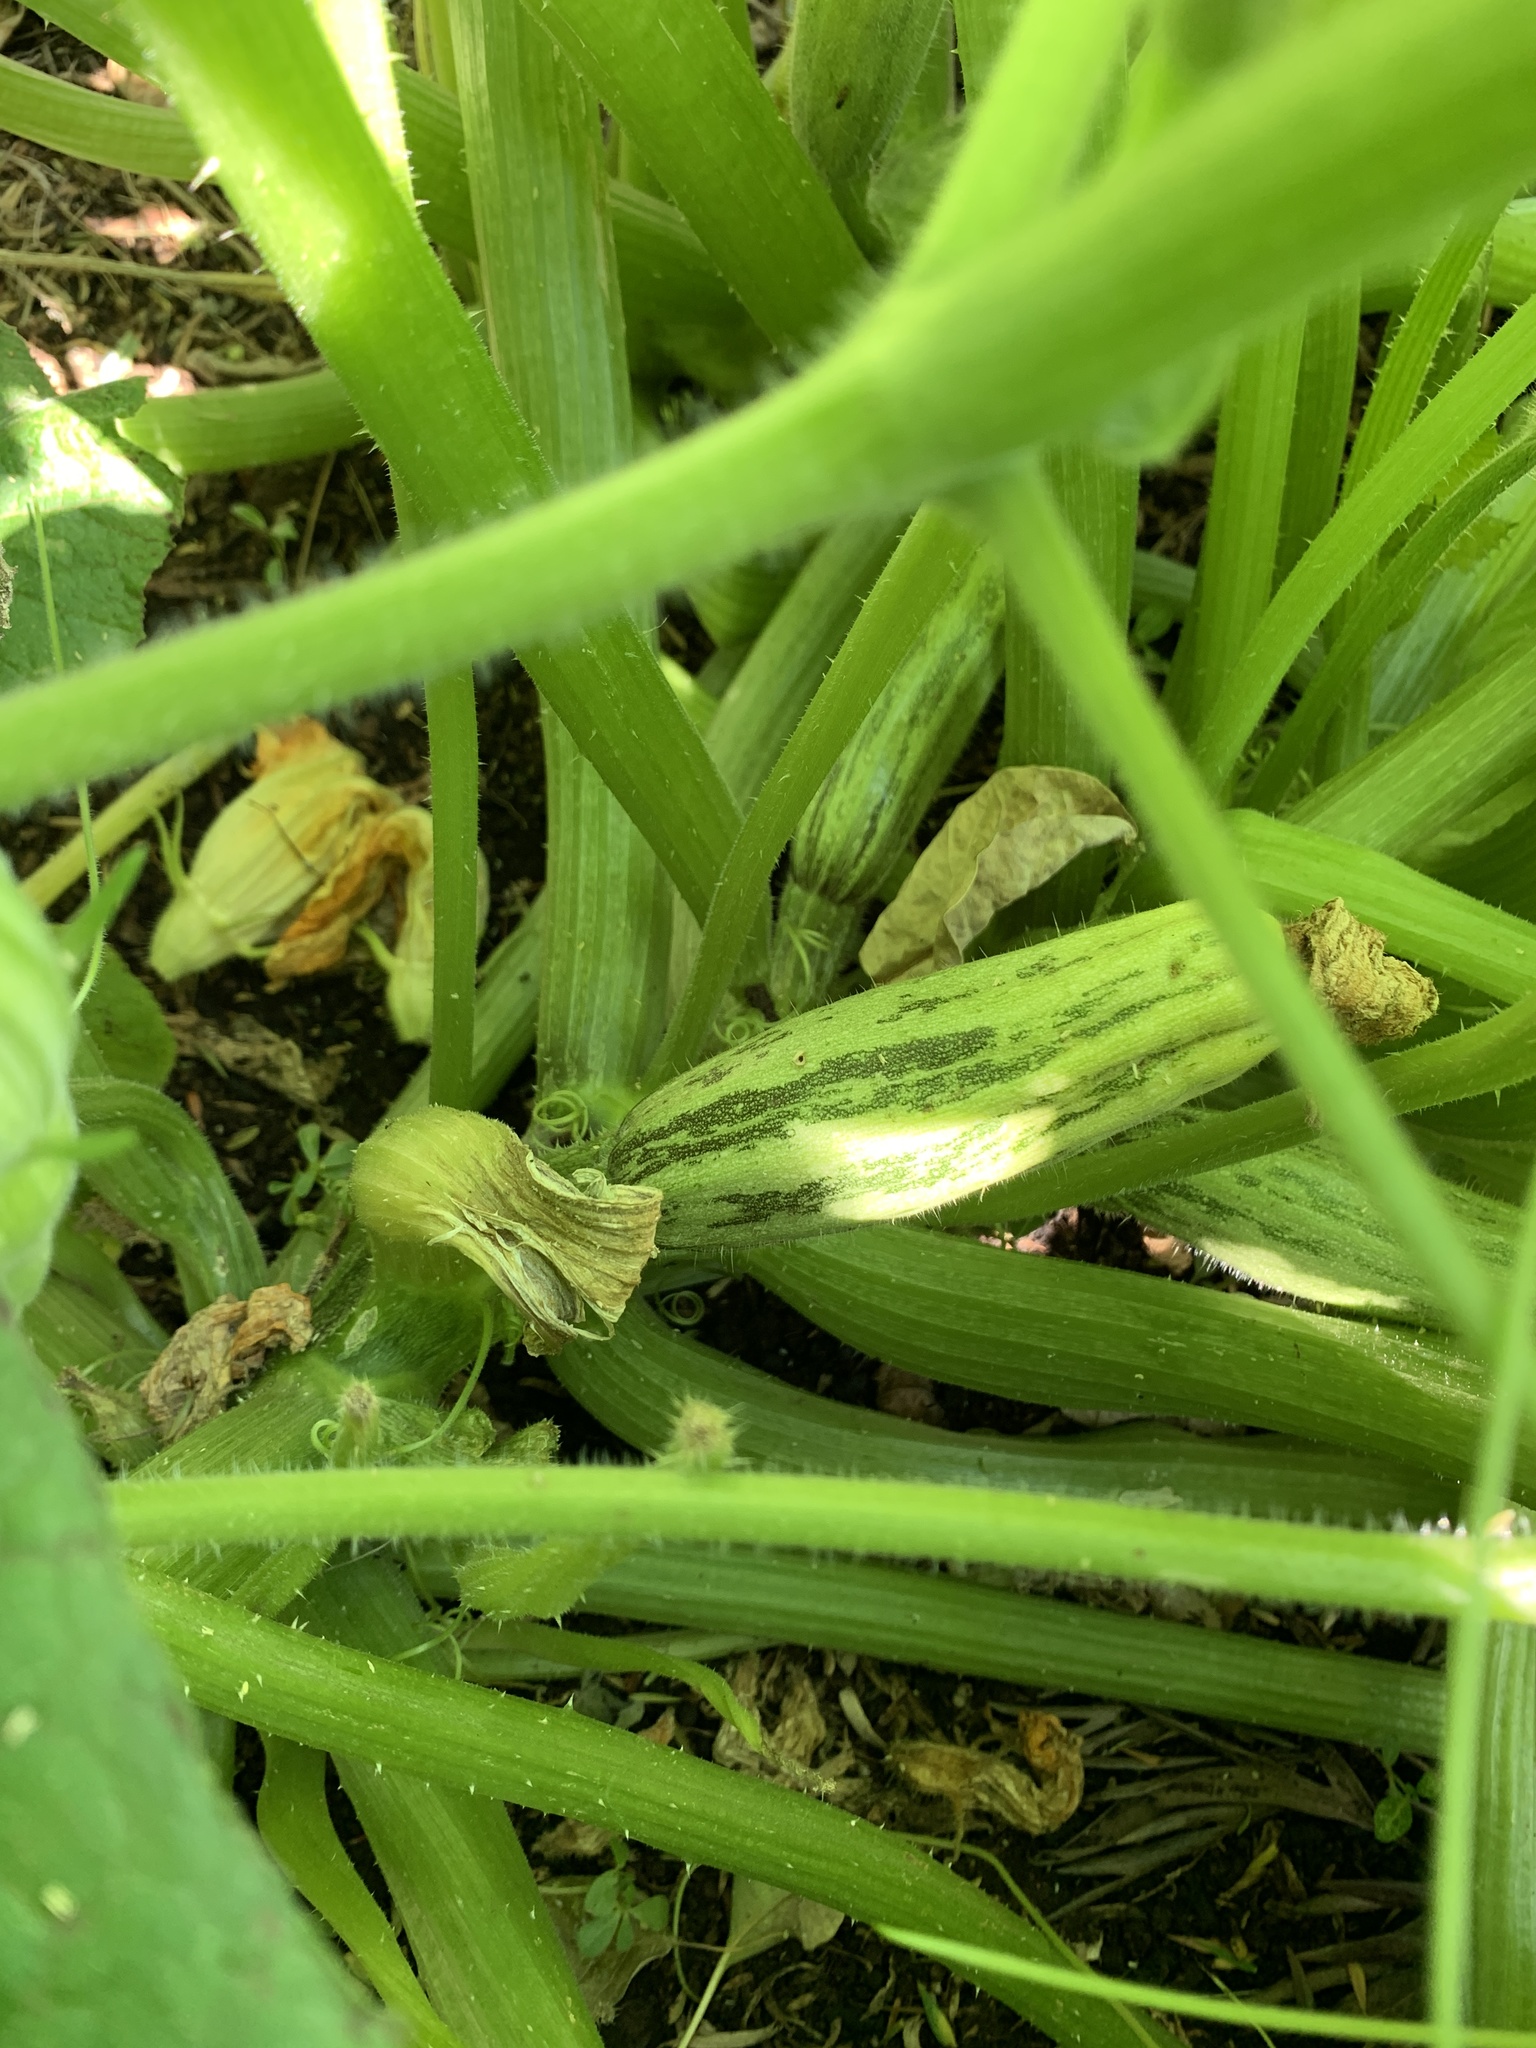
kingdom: Plantae
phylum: Tracheophyta
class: Magnoliopsida
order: Cucurbitales
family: Cucurbitaceae
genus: Cucurbita
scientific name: Cucurbita pepo
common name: Marrow
